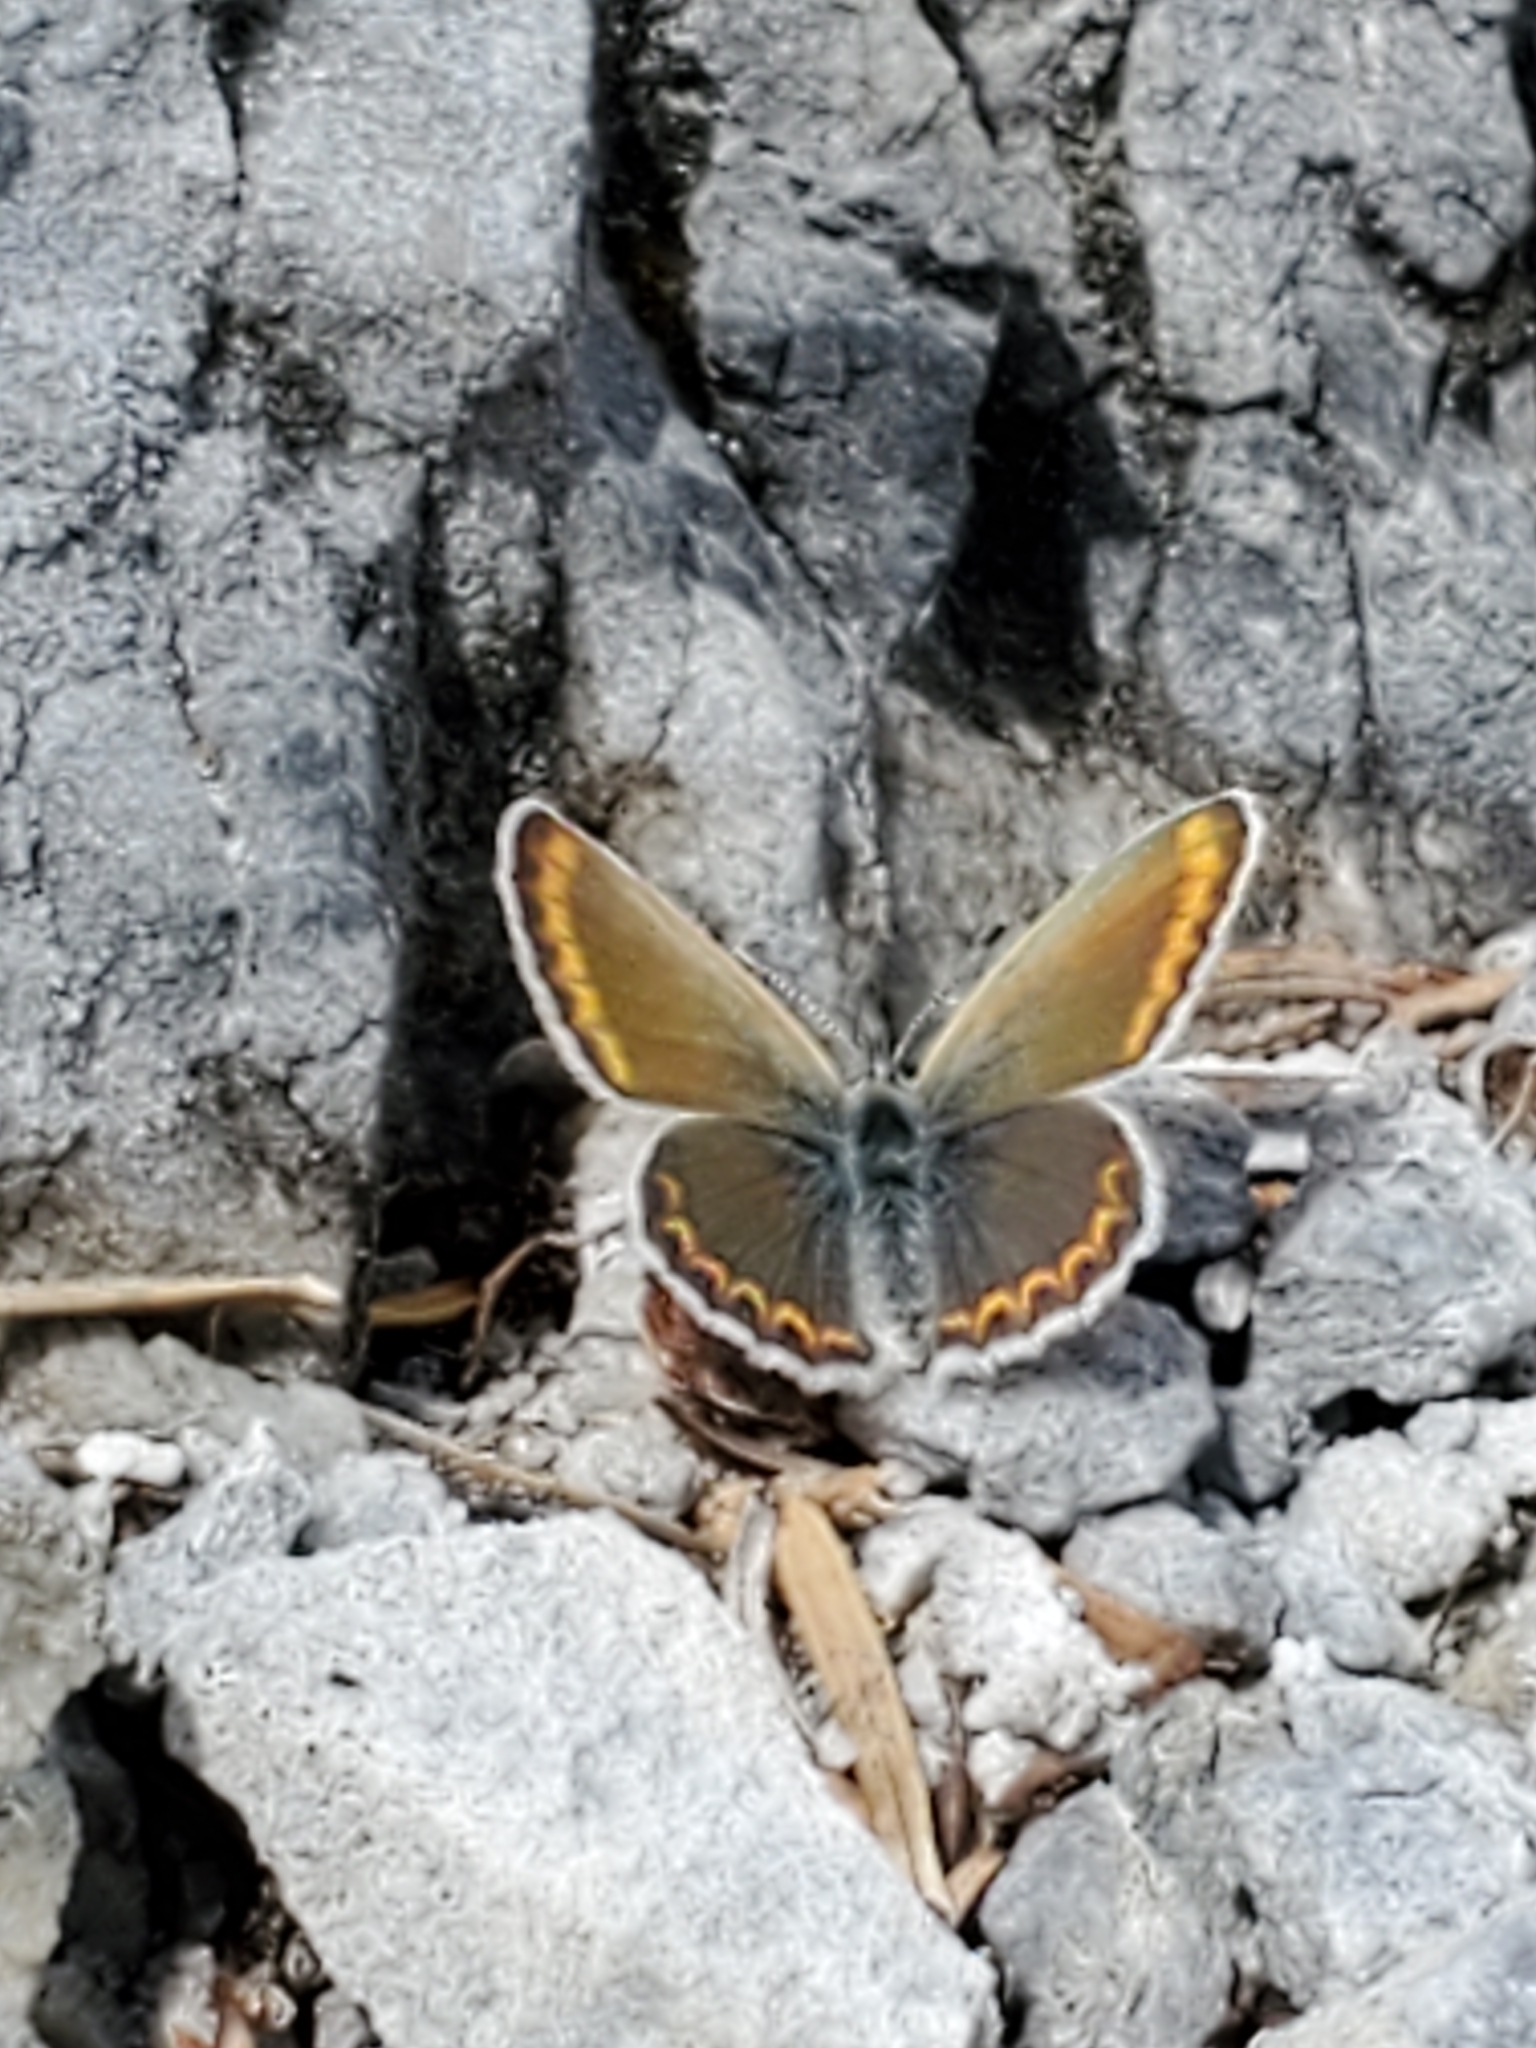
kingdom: Animalia
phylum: Arthropoda
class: Insecta
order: Lepidoptera
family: Lycaenidae
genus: Lycaeides
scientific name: Lycaeides anna
